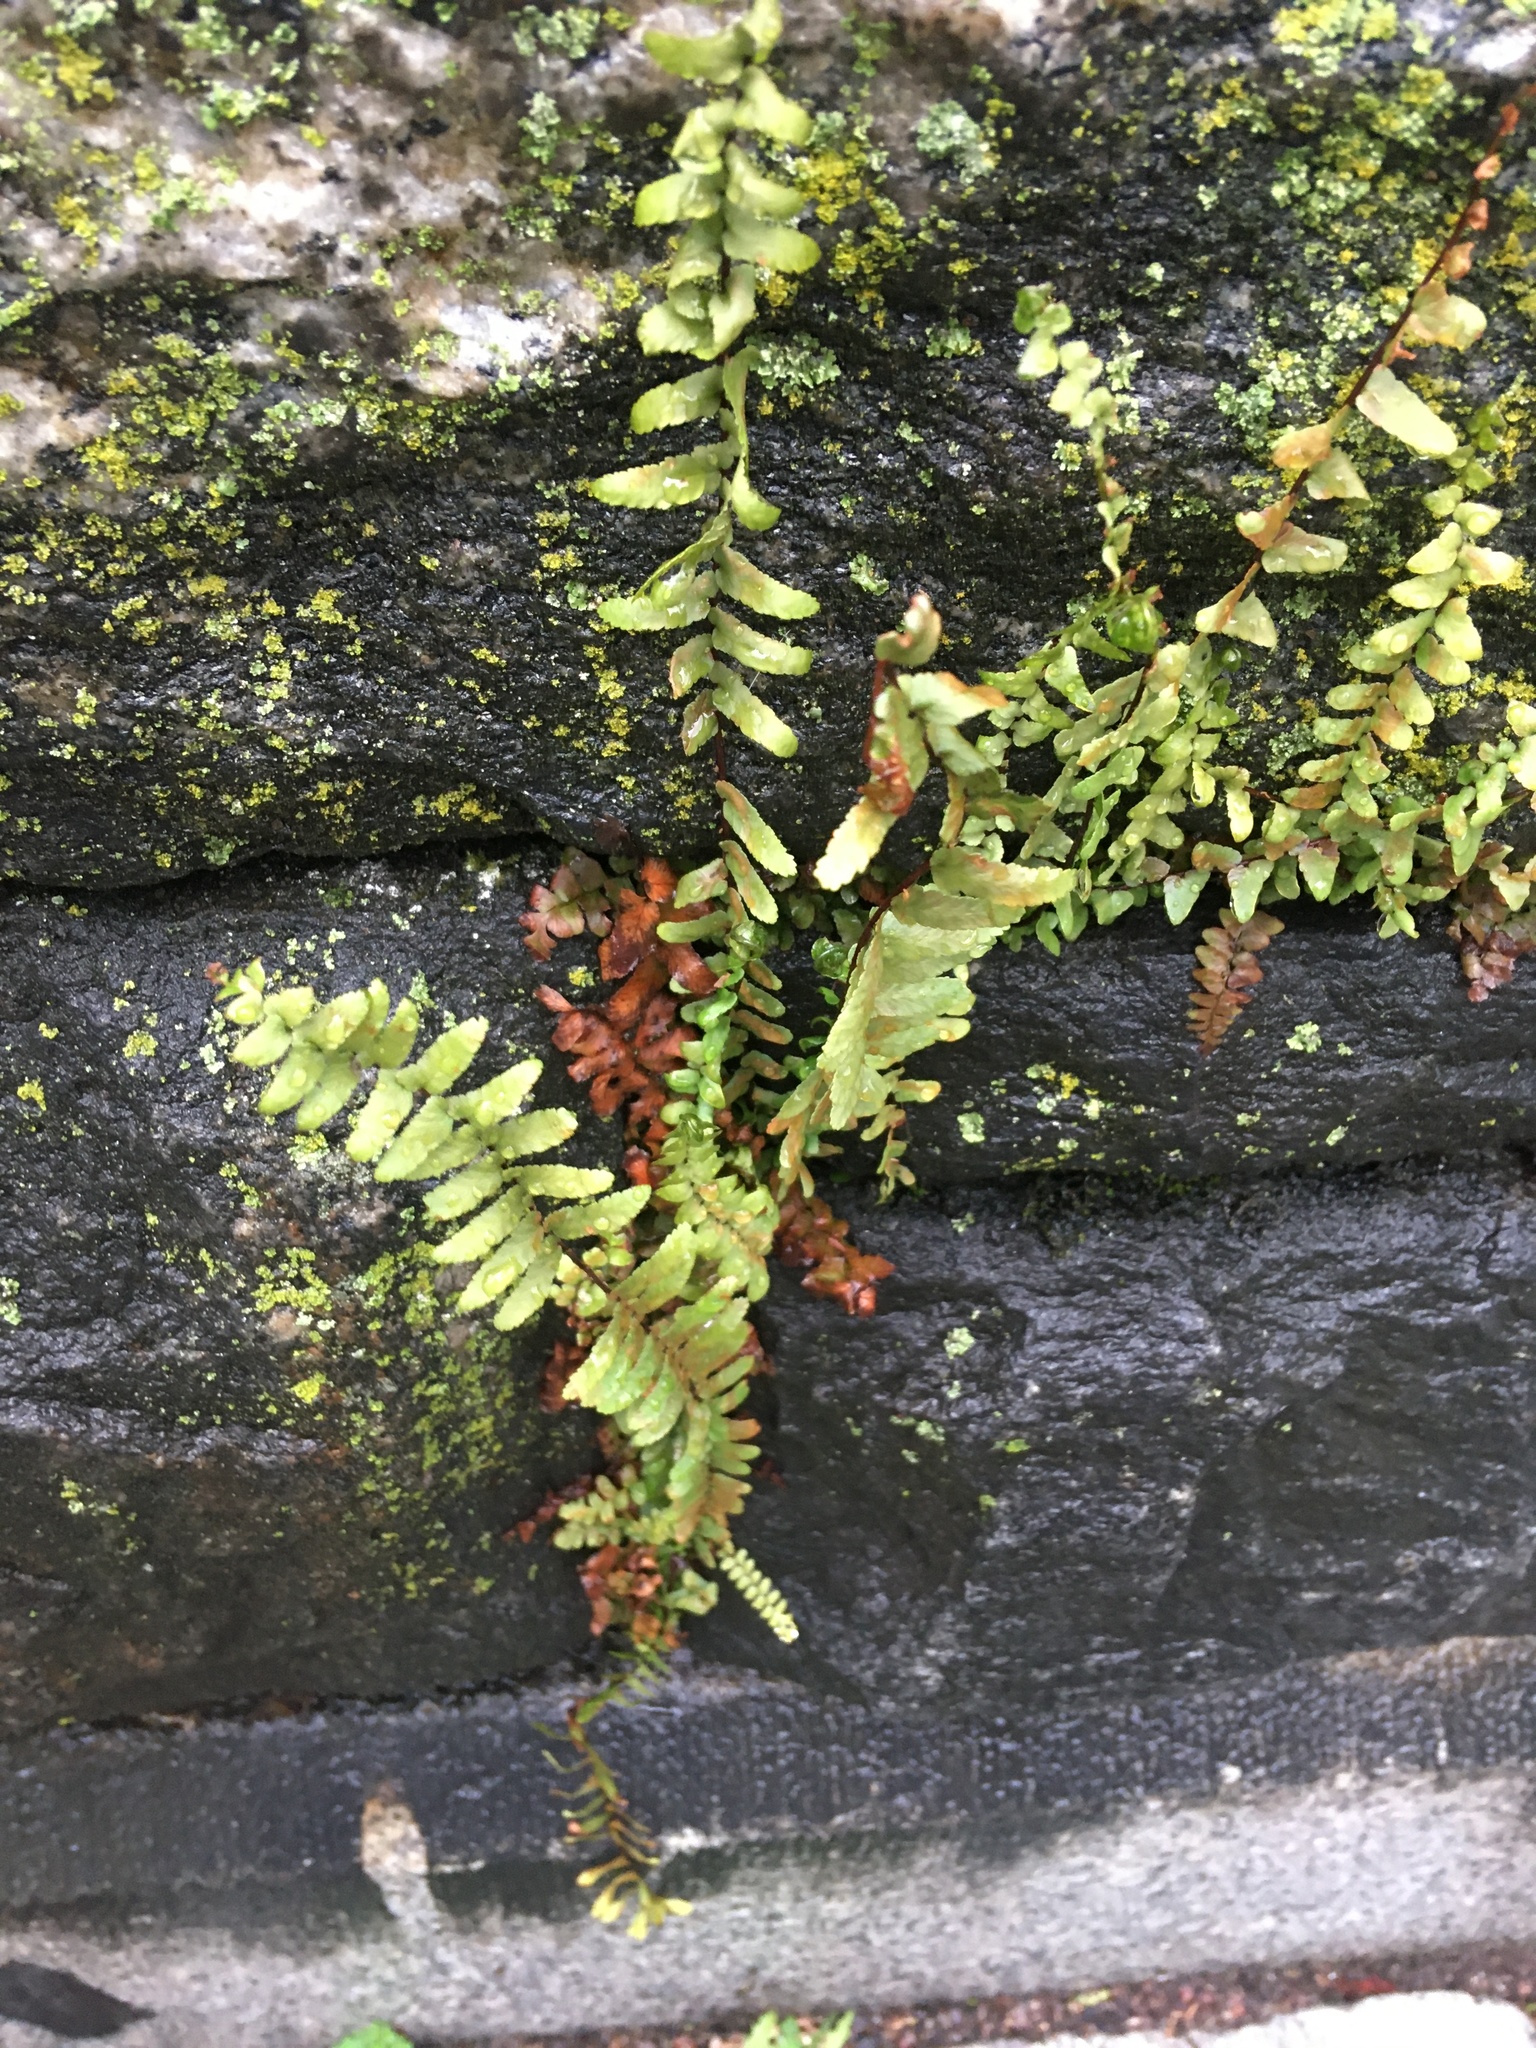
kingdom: Plantae
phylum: Tracheophyta
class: Polypodiopsida
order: Polypodiales
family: Aspleniaceae
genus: Asplenium
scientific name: Asplenium platyneuron
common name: Ebony spleenwort
